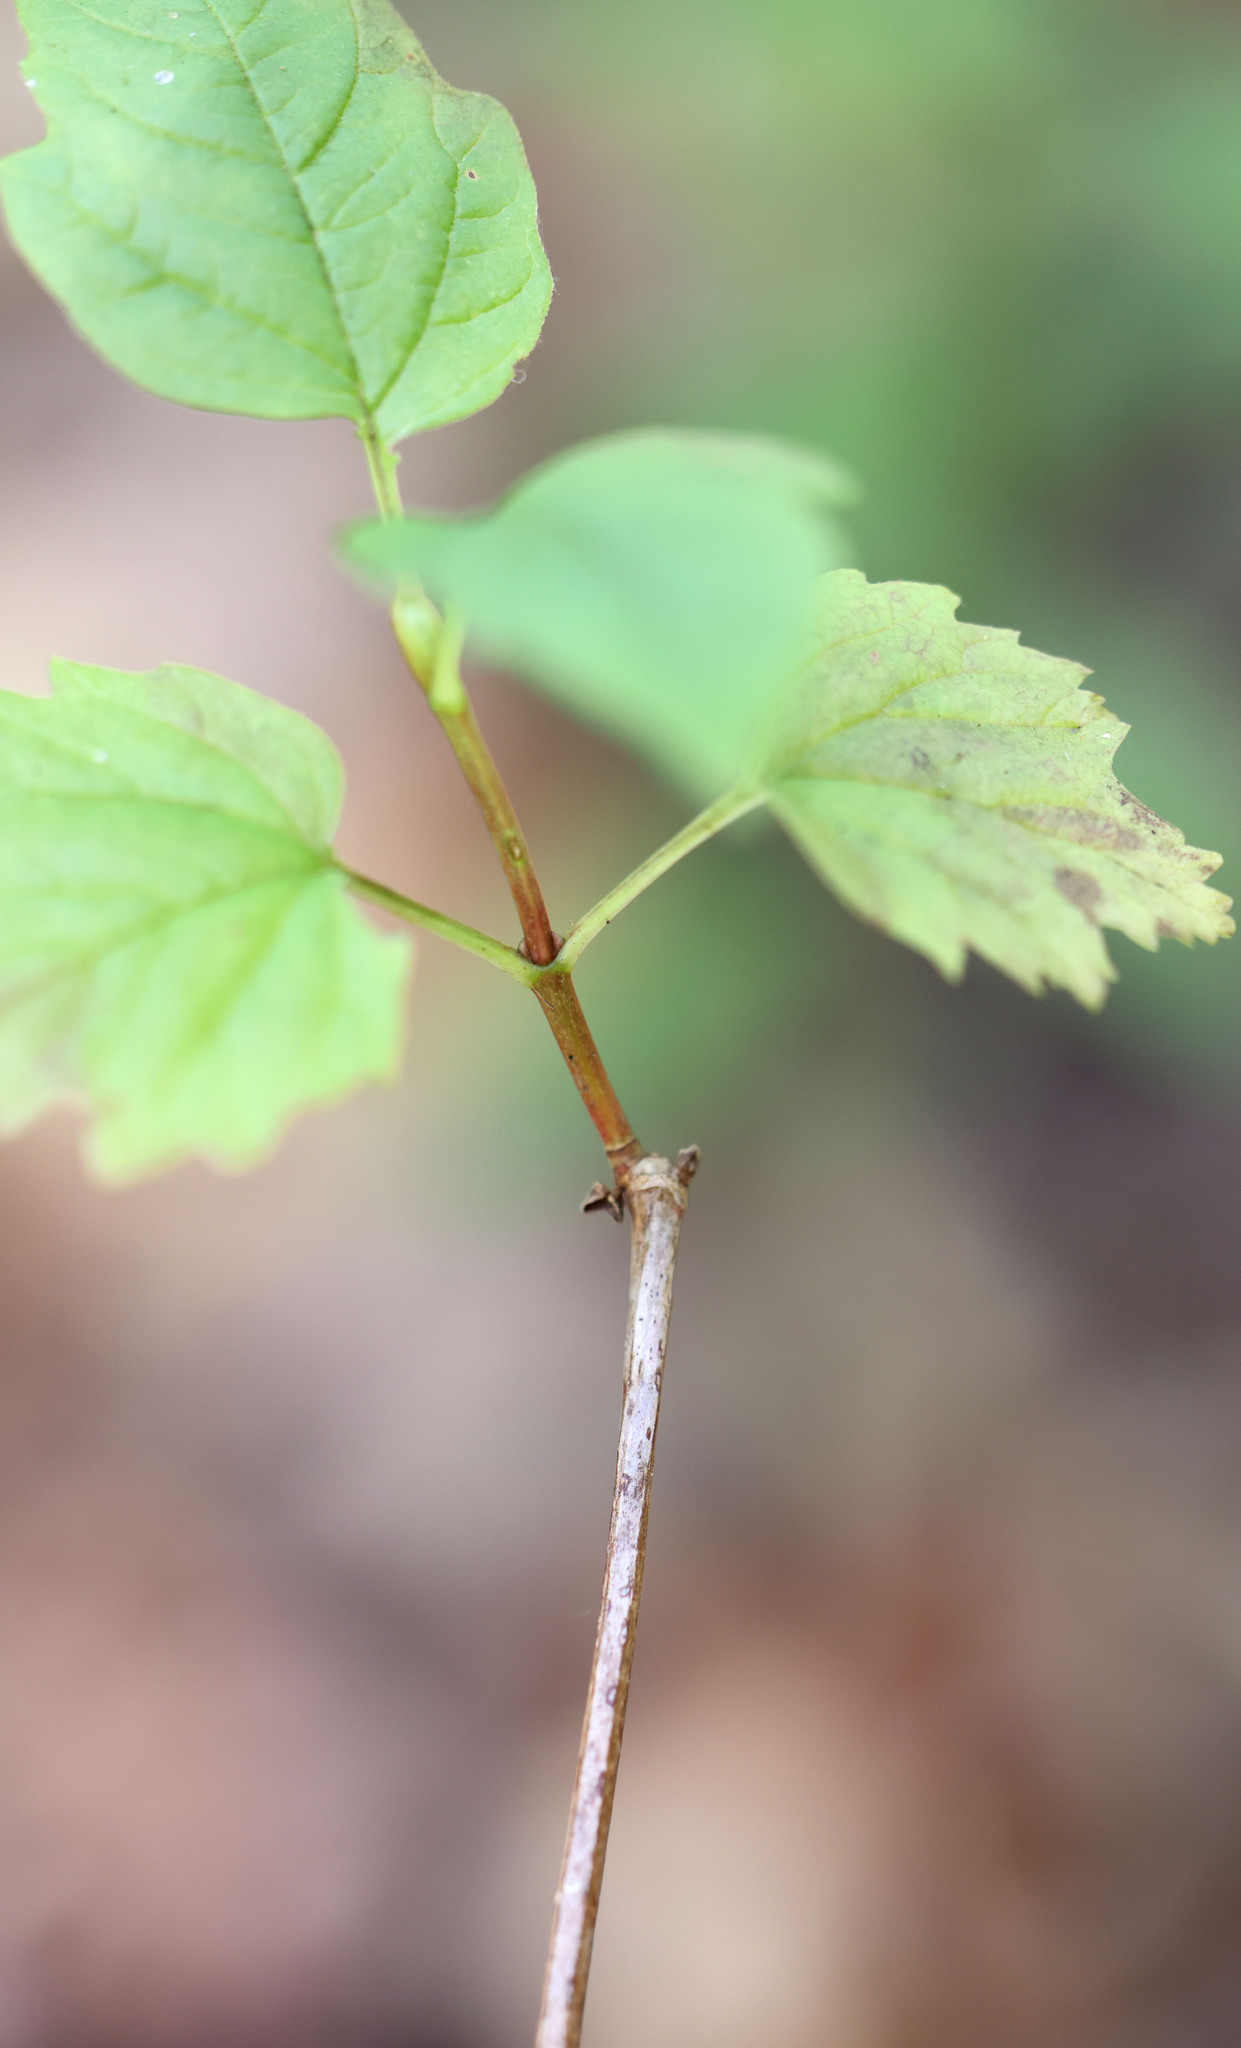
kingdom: Plantae
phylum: Tracheophyta
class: Magnoliopsida
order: Dipsacales
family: Viburnaceae
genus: Viburnum
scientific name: Viburnum acerifolium
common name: Dockmackie
